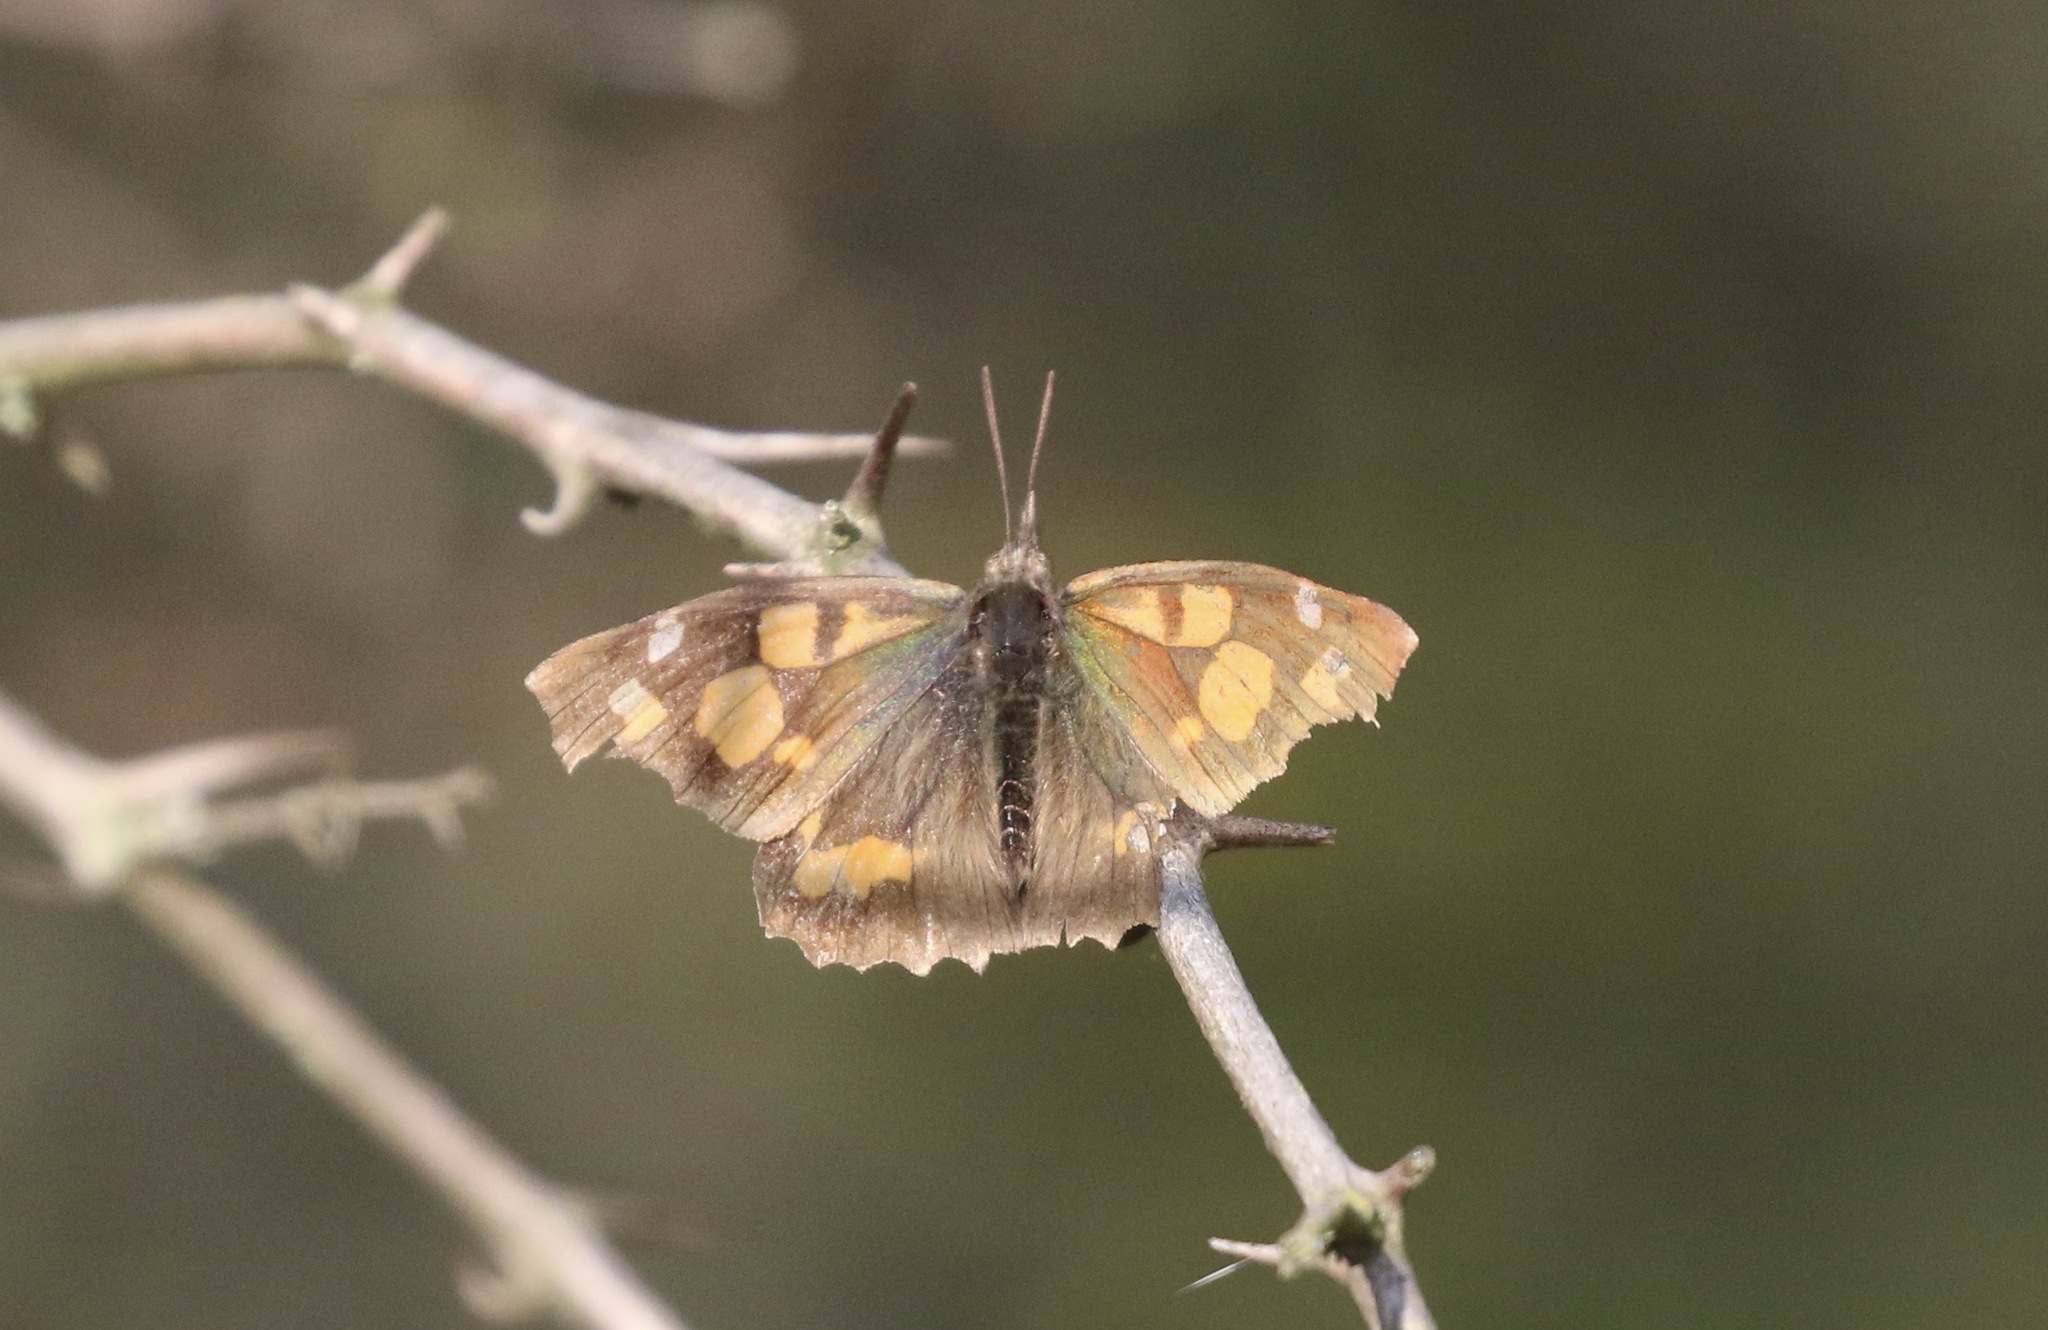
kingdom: Animalia
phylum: Arthropoda
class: Insecta
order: Lepidoptera
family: Nymphalidae
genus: Libythea
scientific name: Libythea celtis
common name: Nettle-tree butterfly
